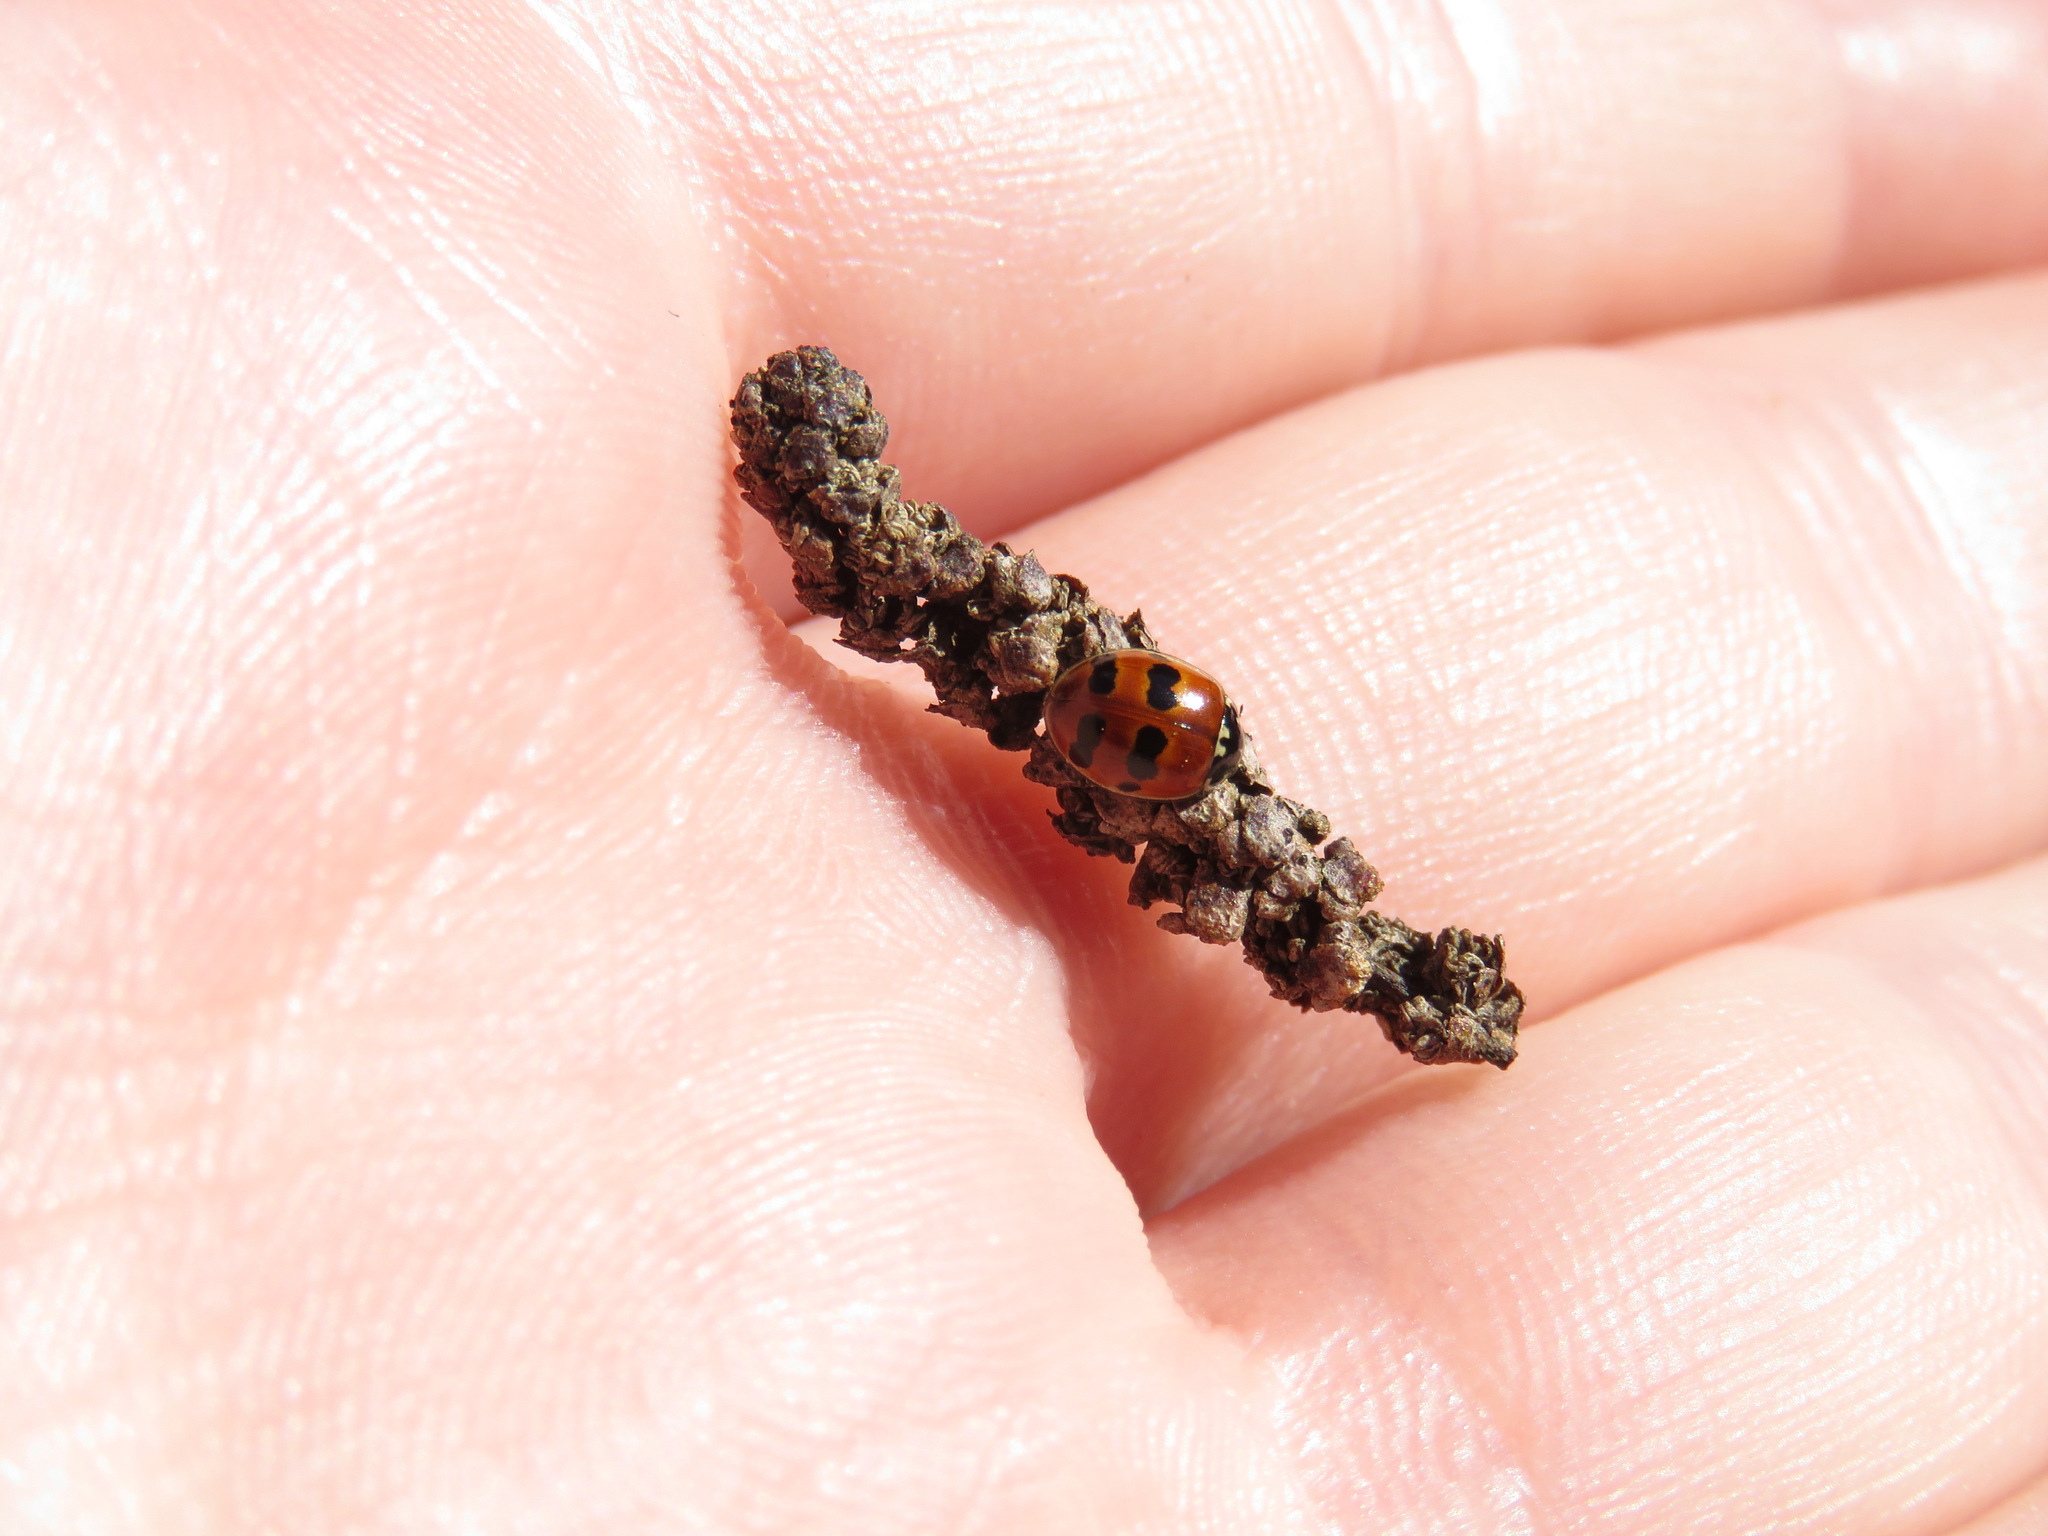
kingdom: Animalia
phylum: Arthropoda
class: Insecta
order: Coleoptera
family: Coccinellidae
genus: Adalia
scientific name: Adalia bipunctata
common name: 2-spot ladybird
